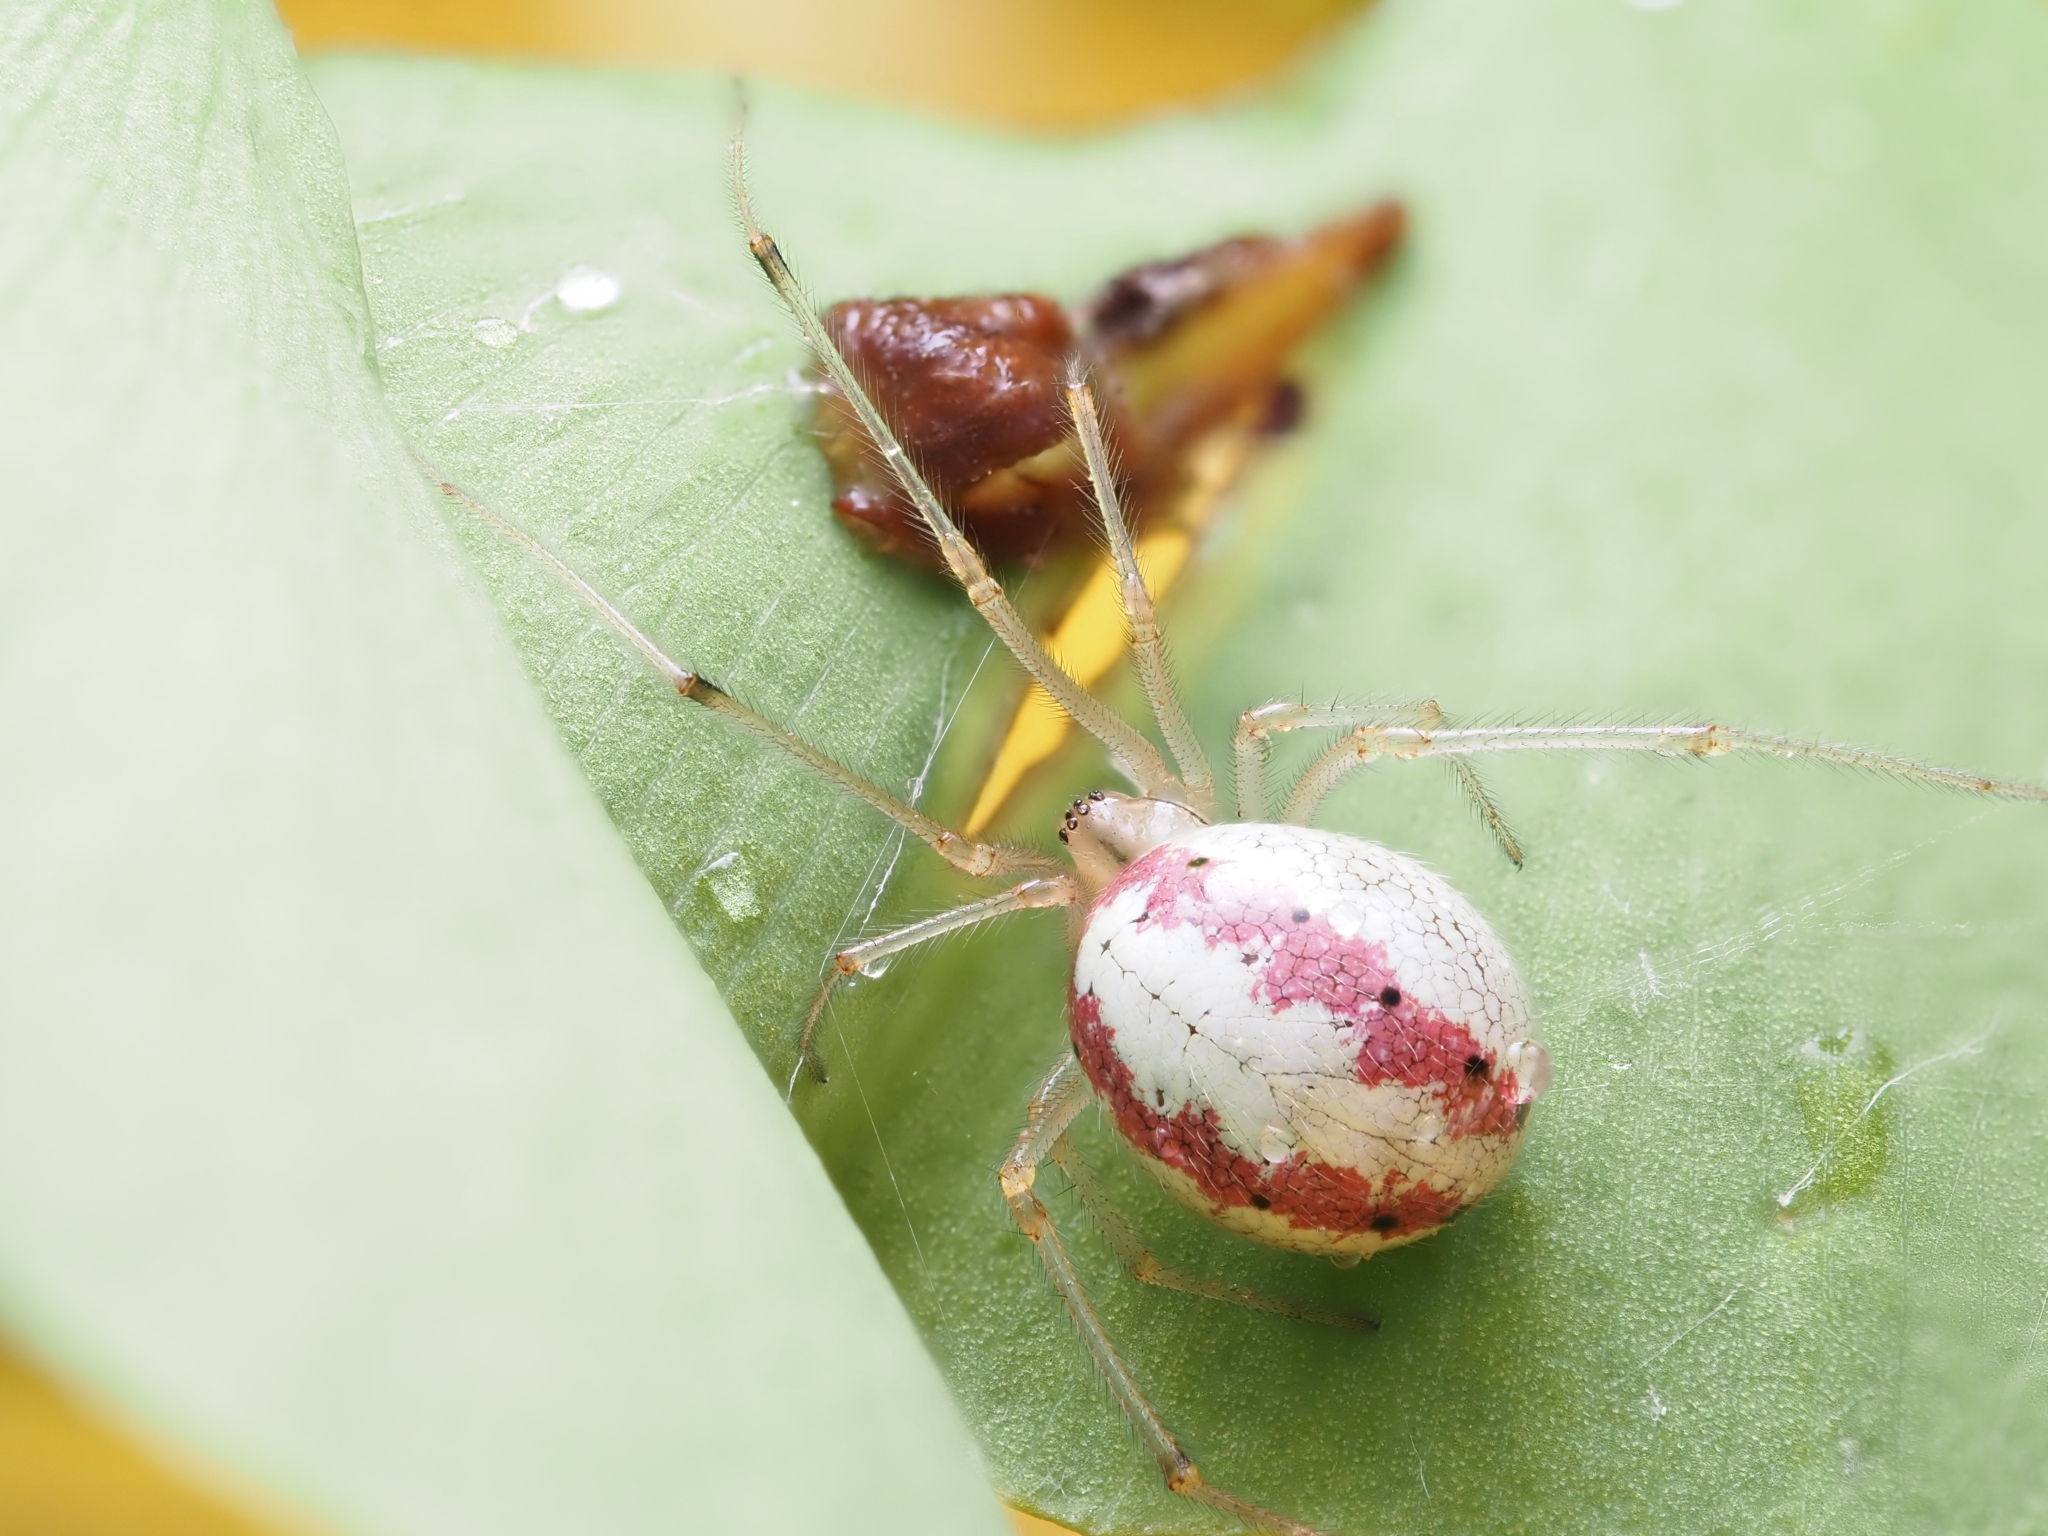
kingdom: Animalia
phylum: Arthropoda
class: Arachnida
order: Araneae
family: Theridiidae
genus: Enoplognatha
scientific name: Enoplognatha ovata
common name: Common candy-striped spider
